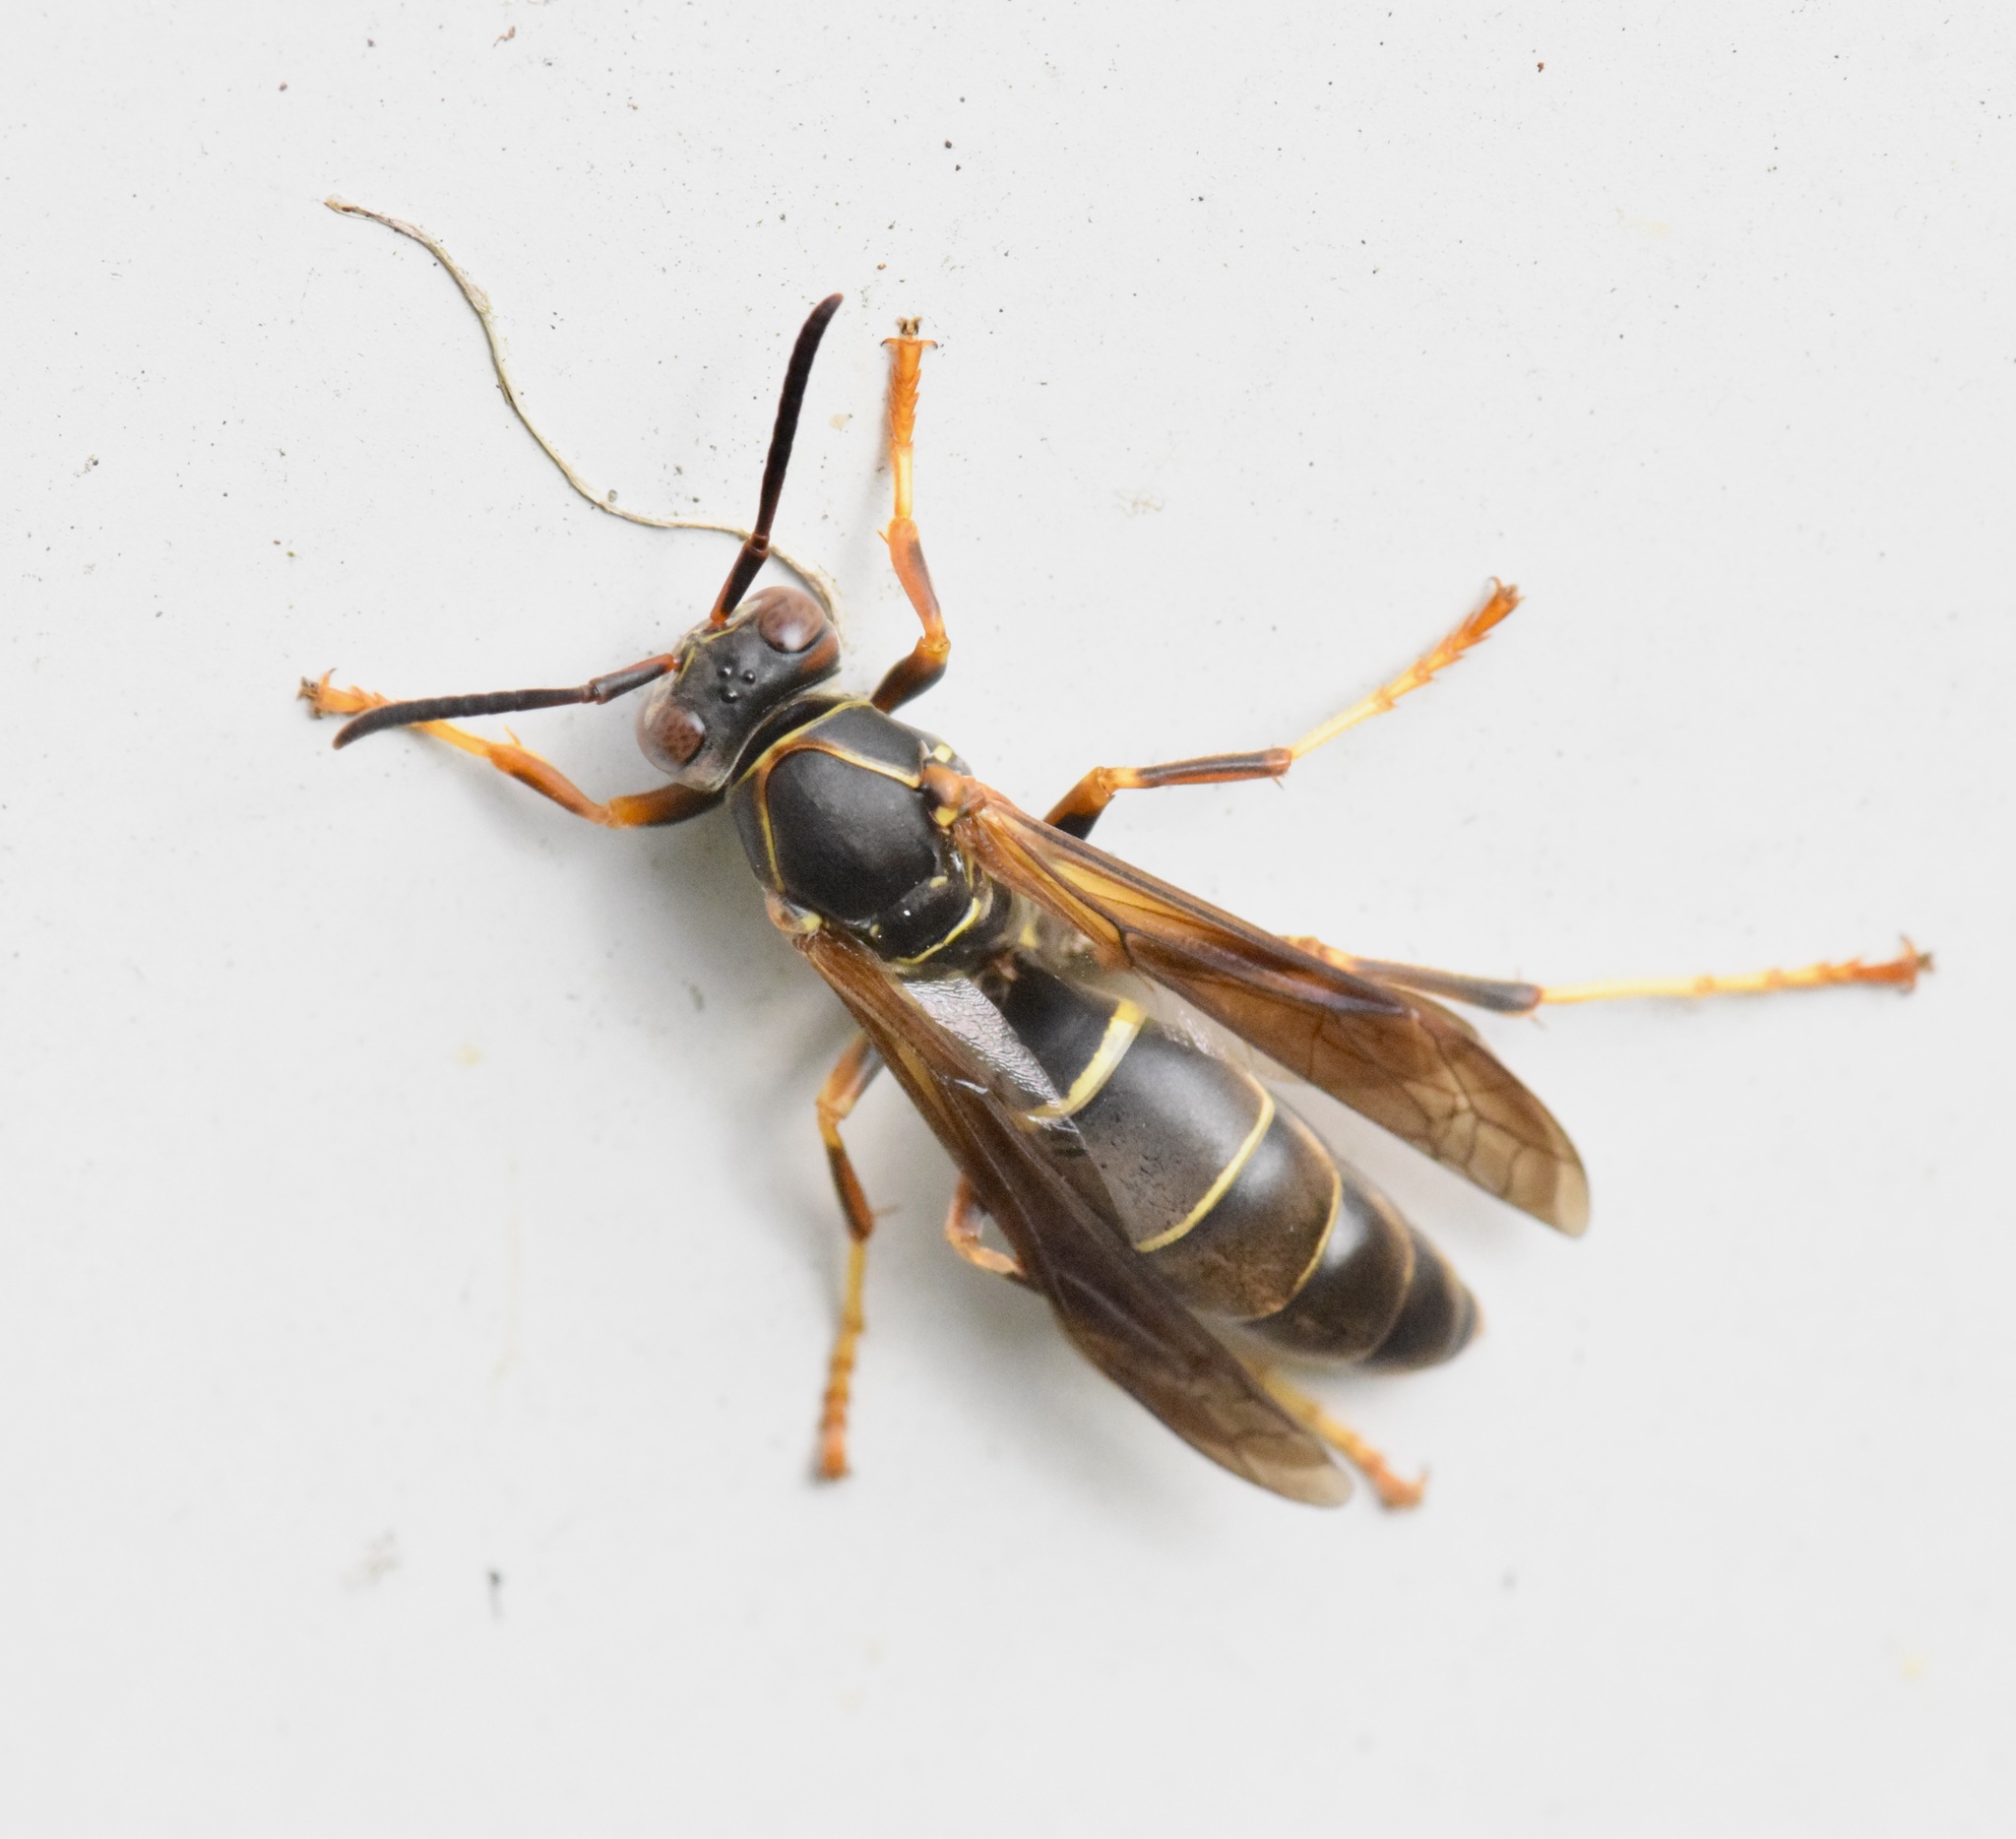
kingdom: Animalia
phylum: Arthropoda
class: Insecta
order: Hymenoptera
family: Eumenidae
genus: Polistes
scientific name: Polistes fuscatus
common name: Dark paper wasp
